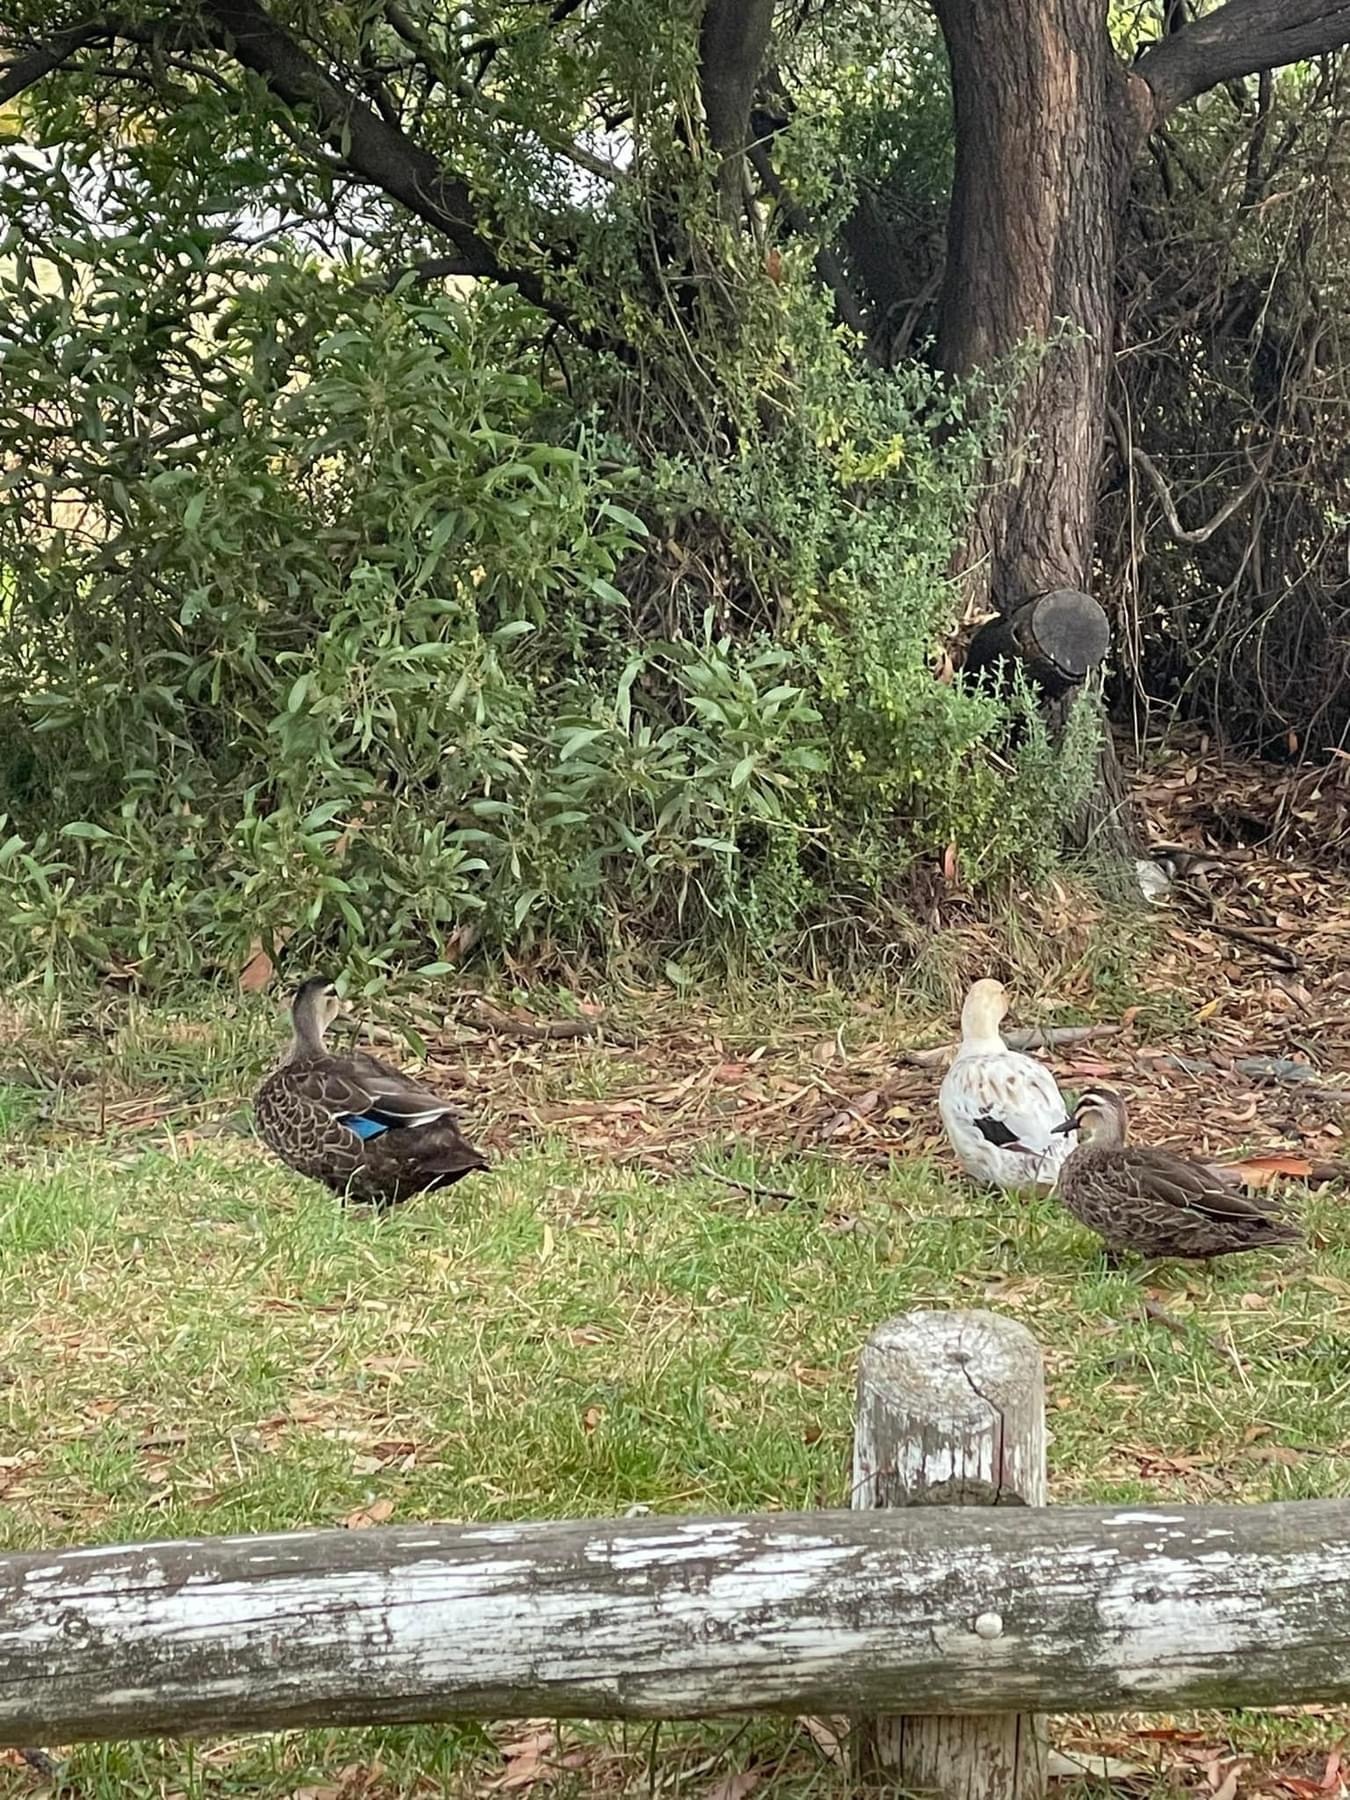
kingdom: Animalia
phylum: Chordata
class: Aves
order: Anseriformes
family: Anatidae
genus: Anas
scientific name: Anas
